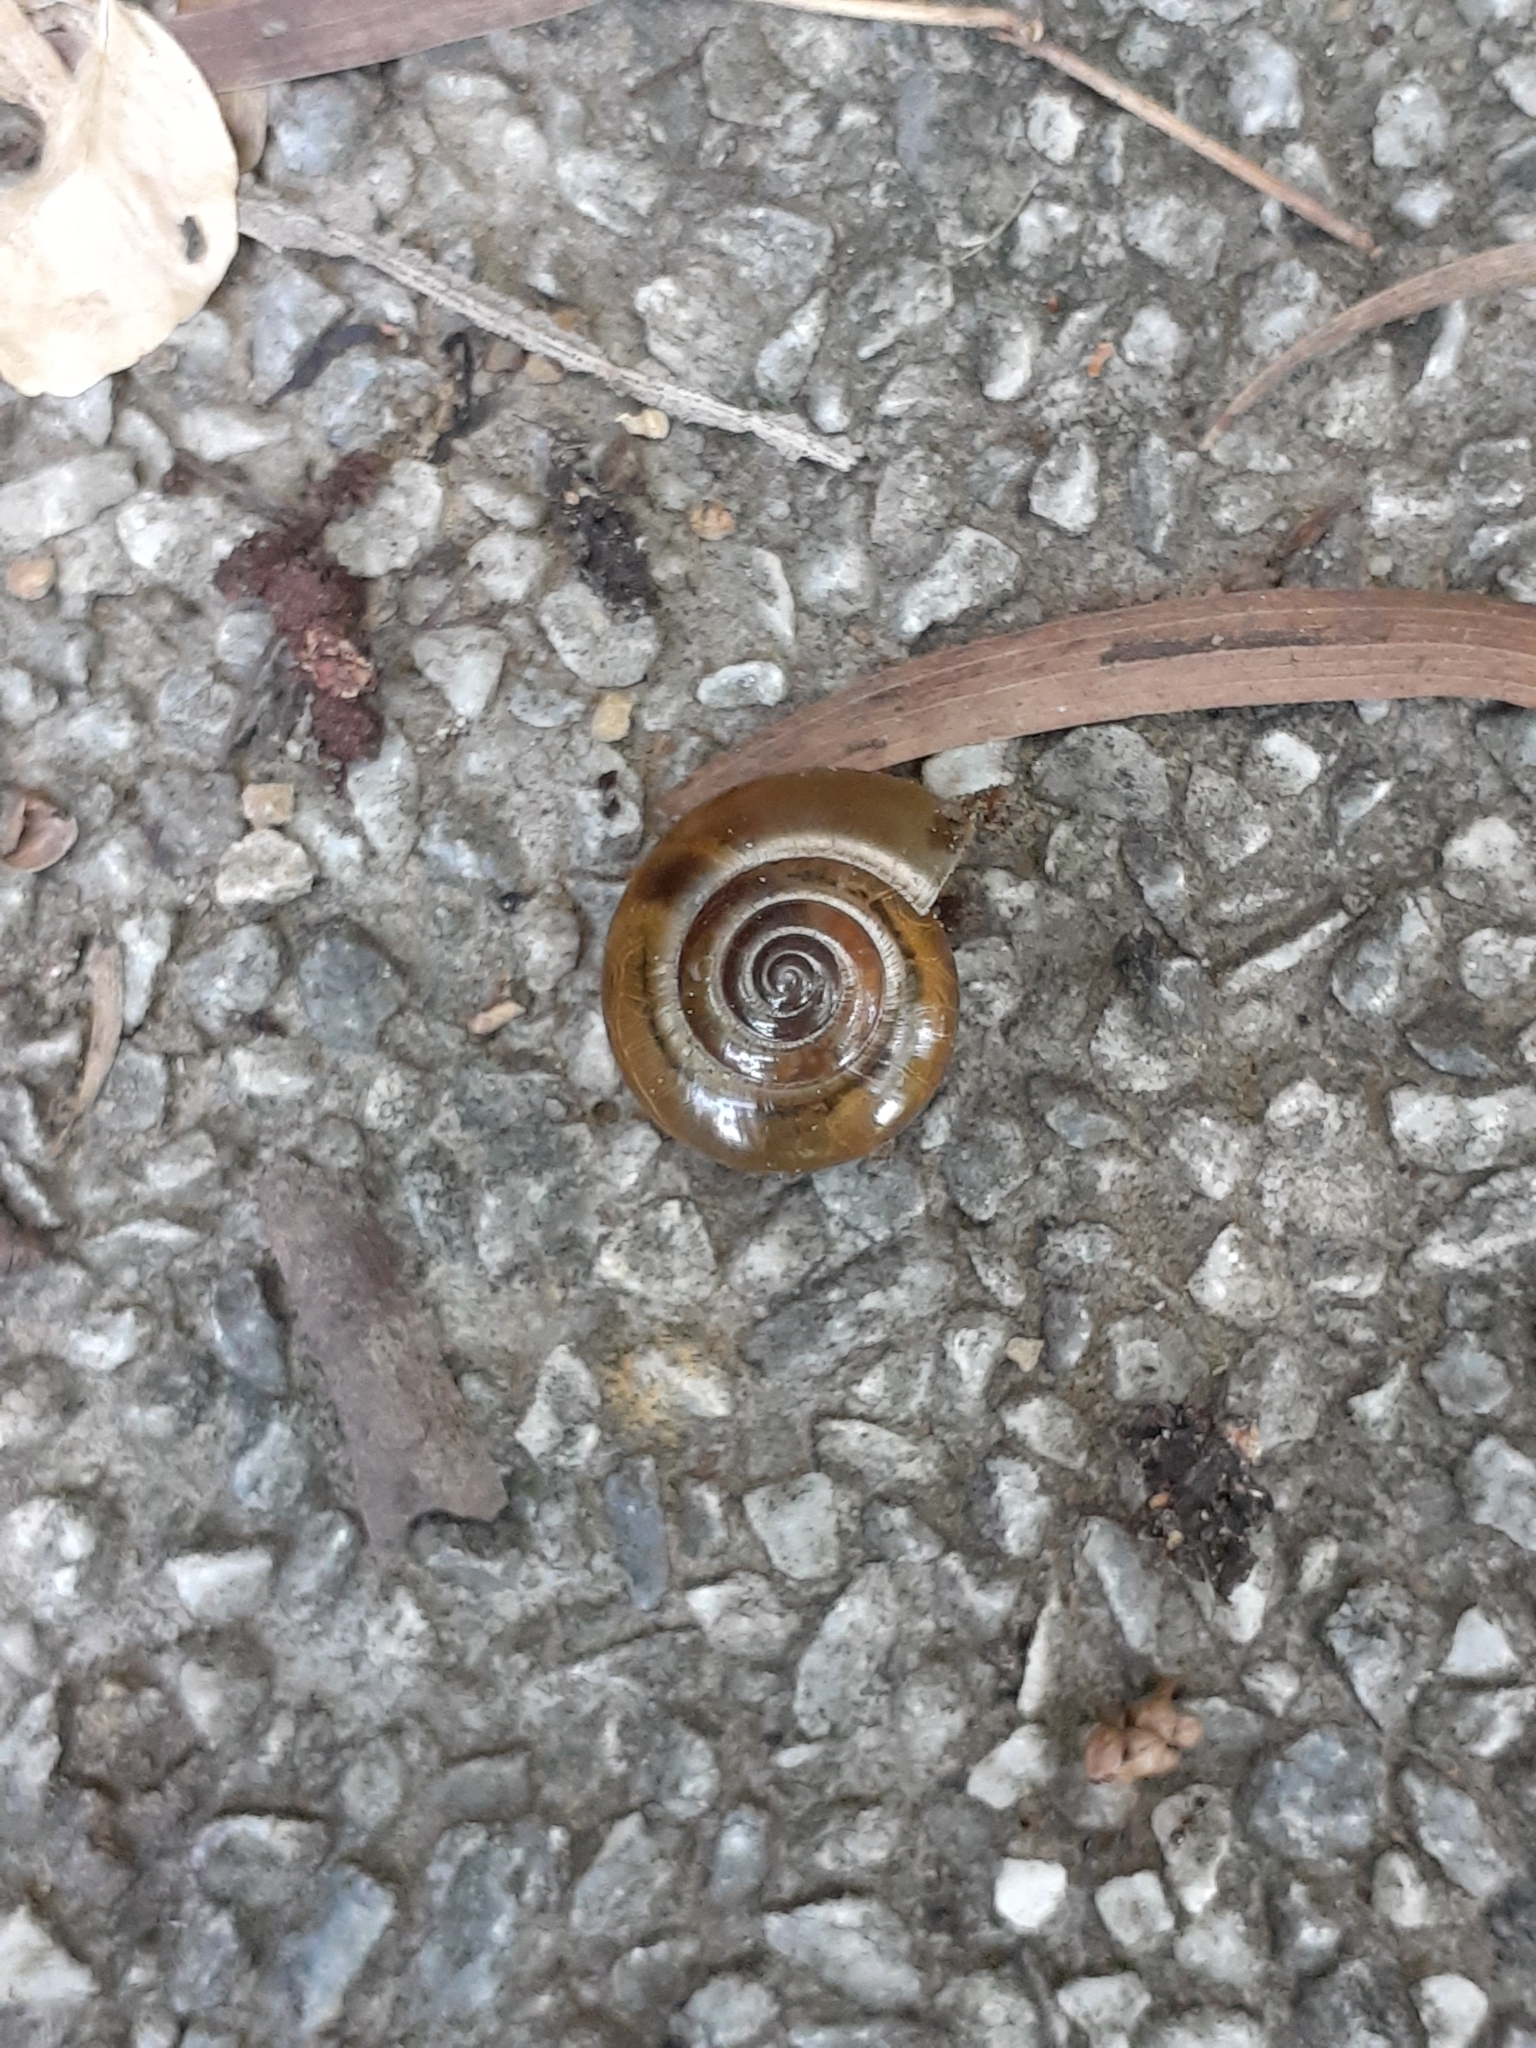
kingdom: Animalia
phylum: Mollusca
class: Gastropoda
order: Stylommatophora
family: Ariophantidae
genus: Macrochlamys
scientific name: Macrochlamys hippocastaneum
